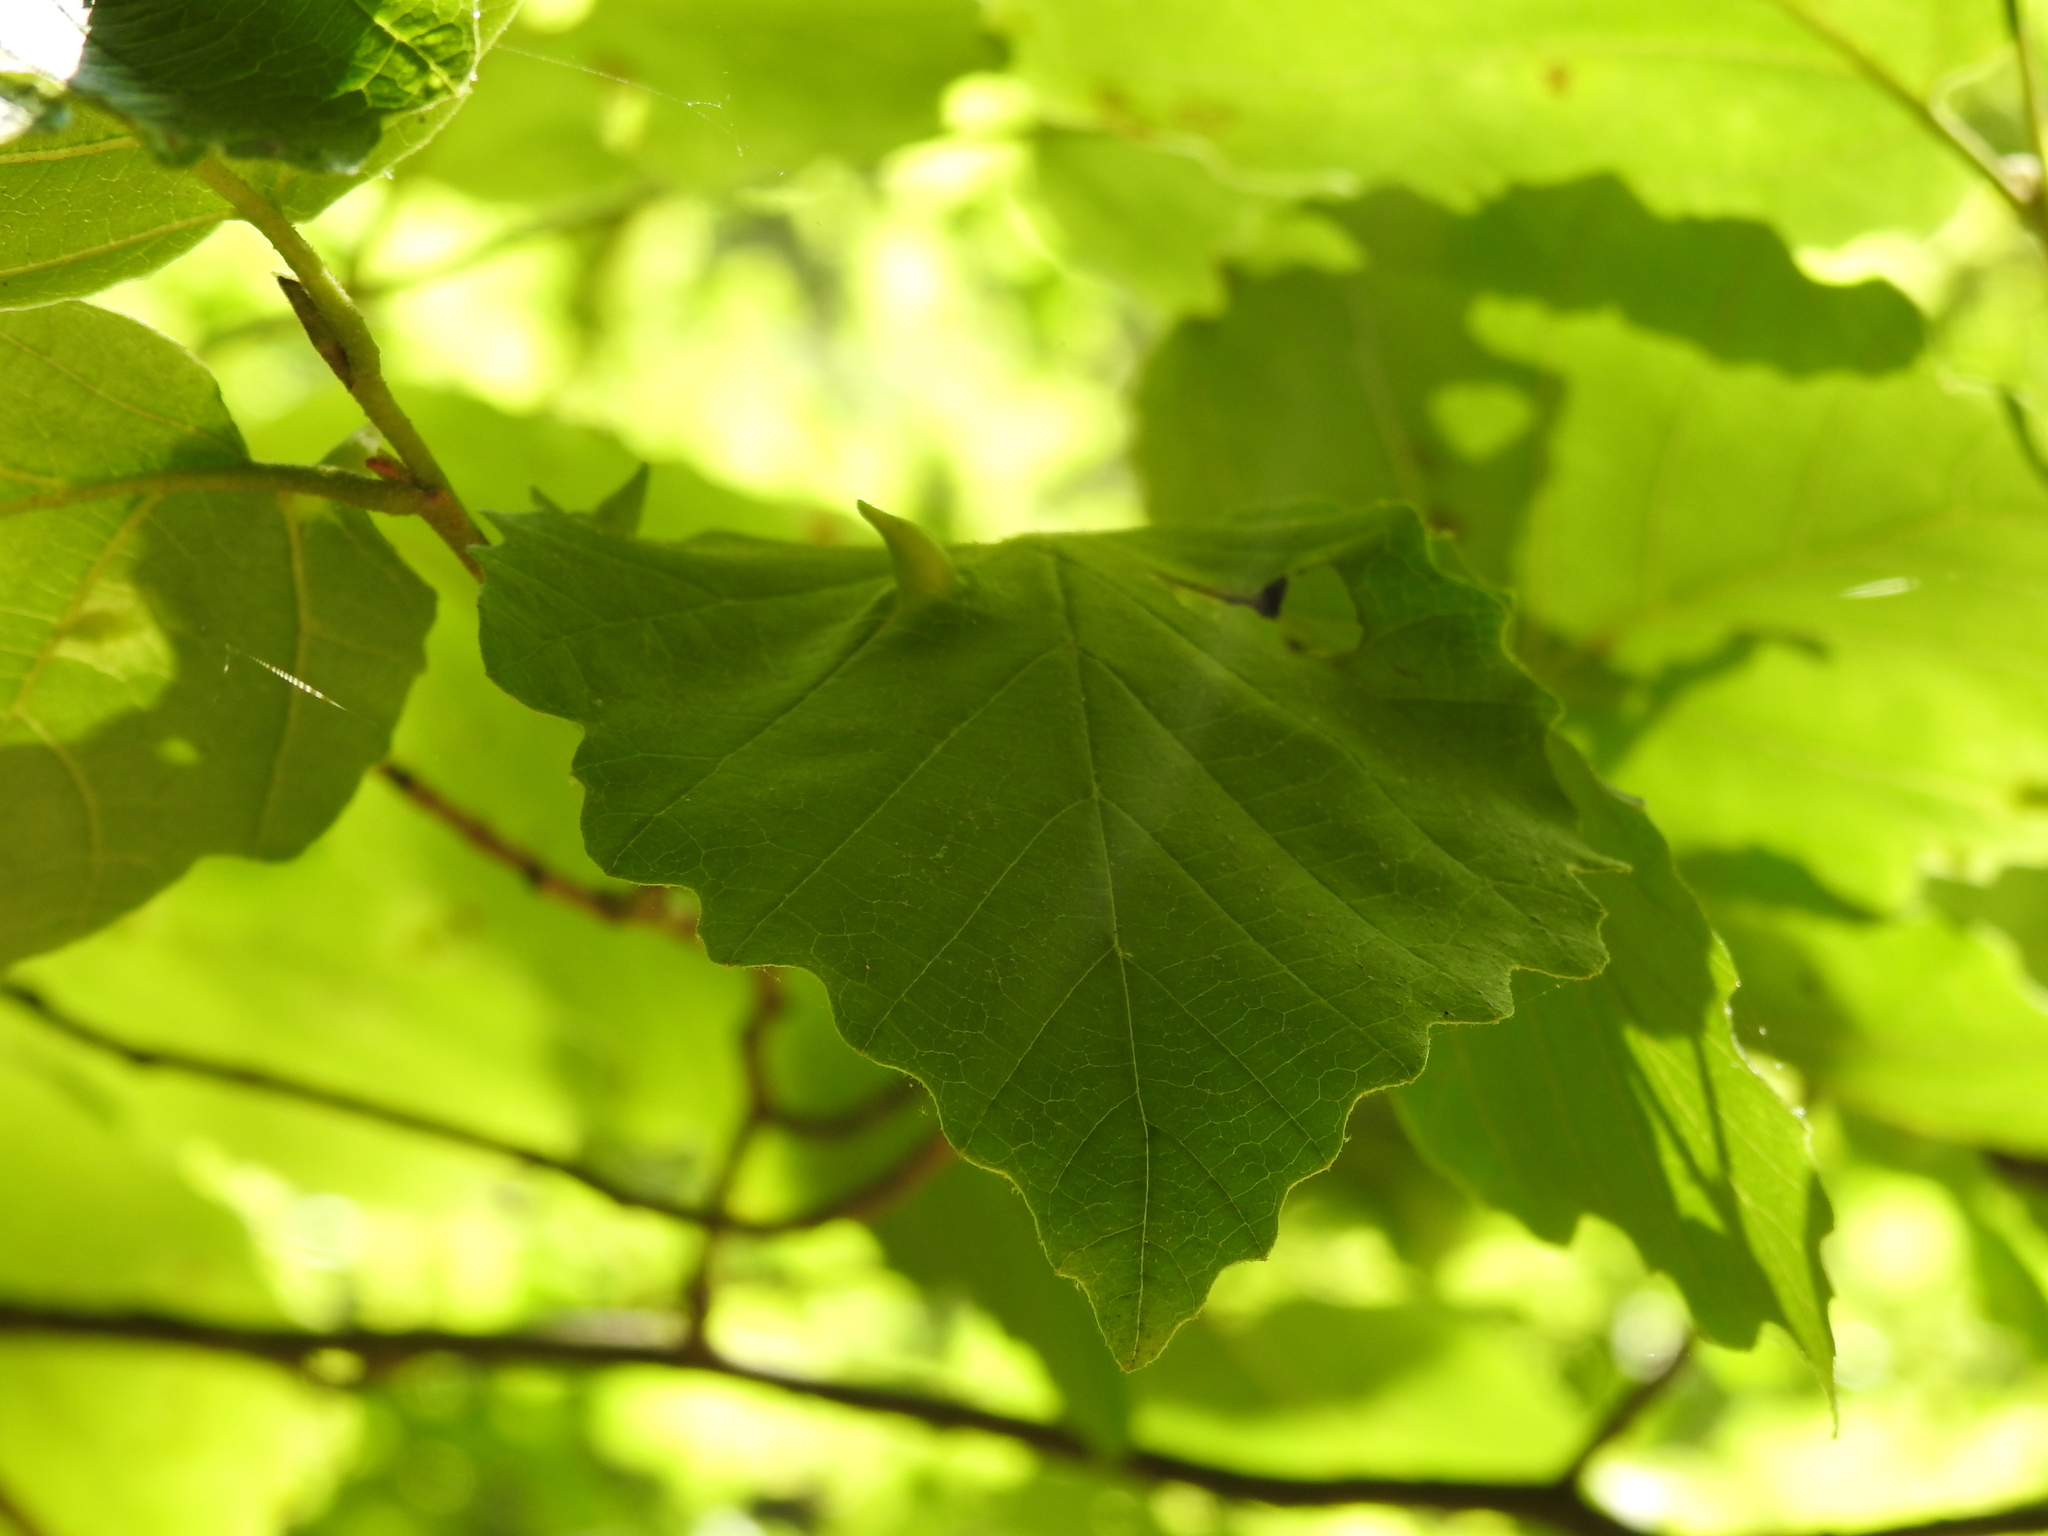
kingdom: Animalia
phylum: Arthropoda
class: Insecta
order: Hemiptera
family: Aphididae
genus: Hormaphis
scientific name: Hormaphis hamamelidis
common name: Witch-hazel cone gall aphid
